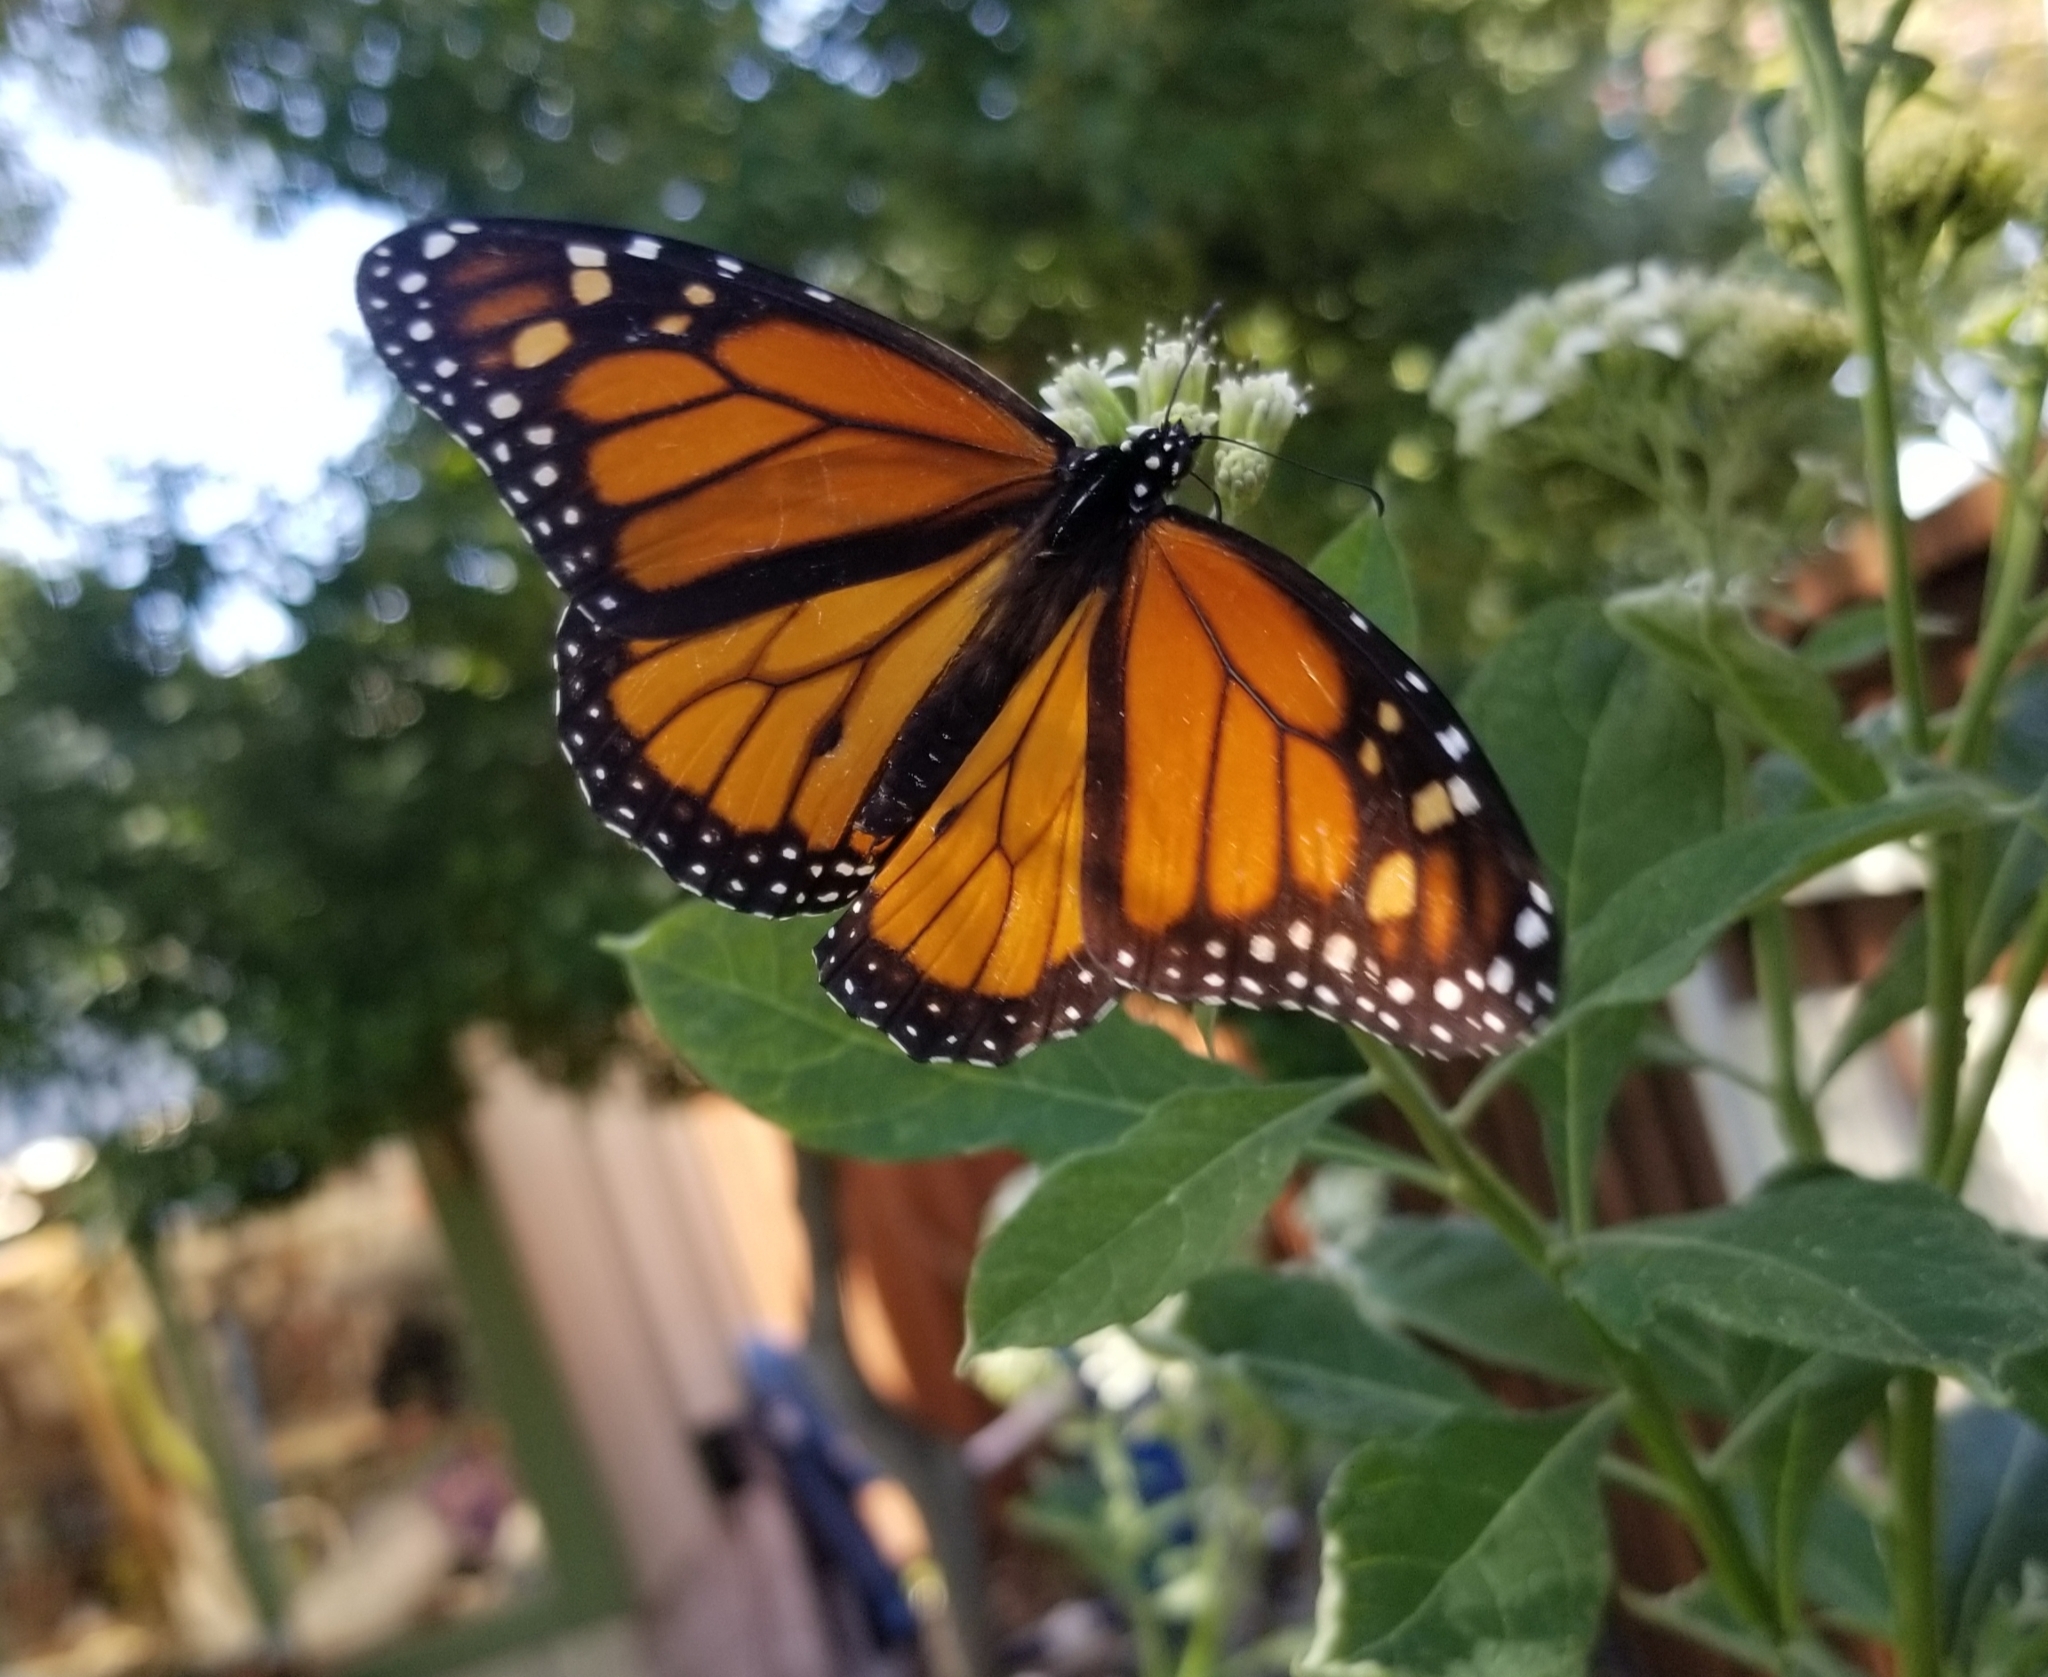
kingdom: Animalia
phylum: Arthropoda
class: Insecta
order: Lepidoptera
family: Nymphalidae
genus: Danaus
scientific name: Danaus plexippus
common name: Monarch
